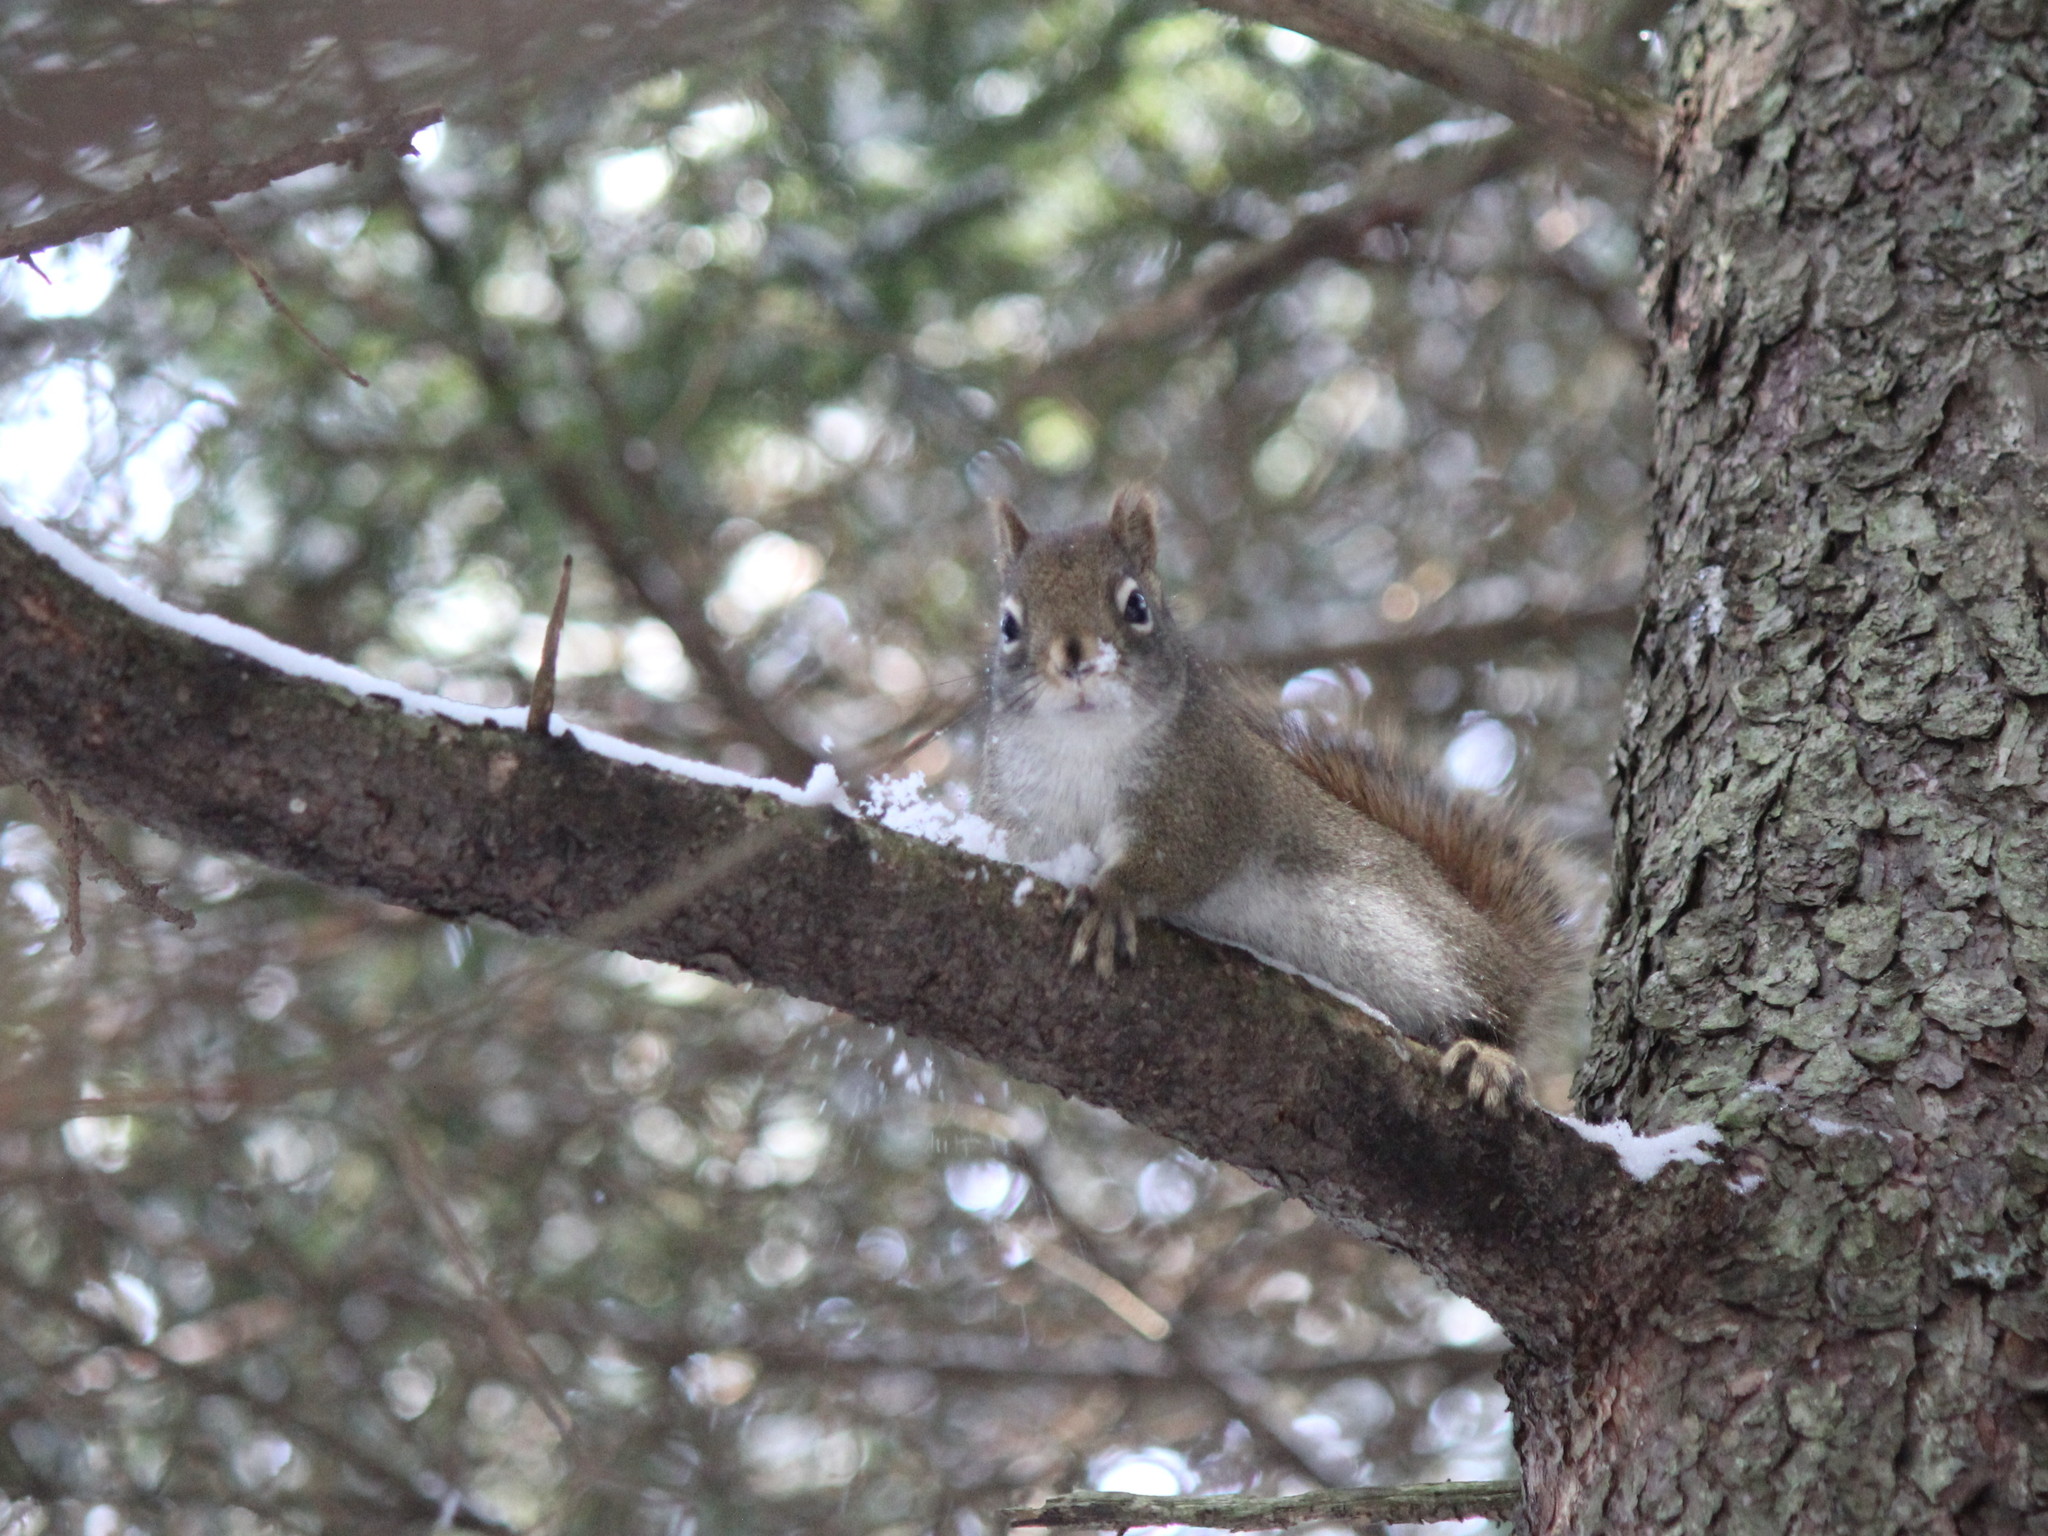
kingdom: Animalia
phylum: Chordata
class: Mammalia
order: Rodentia
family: Sciuridae
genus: Tamiasciurus
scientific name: Tamiasciurus hudsonicus
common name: Red squirrel
